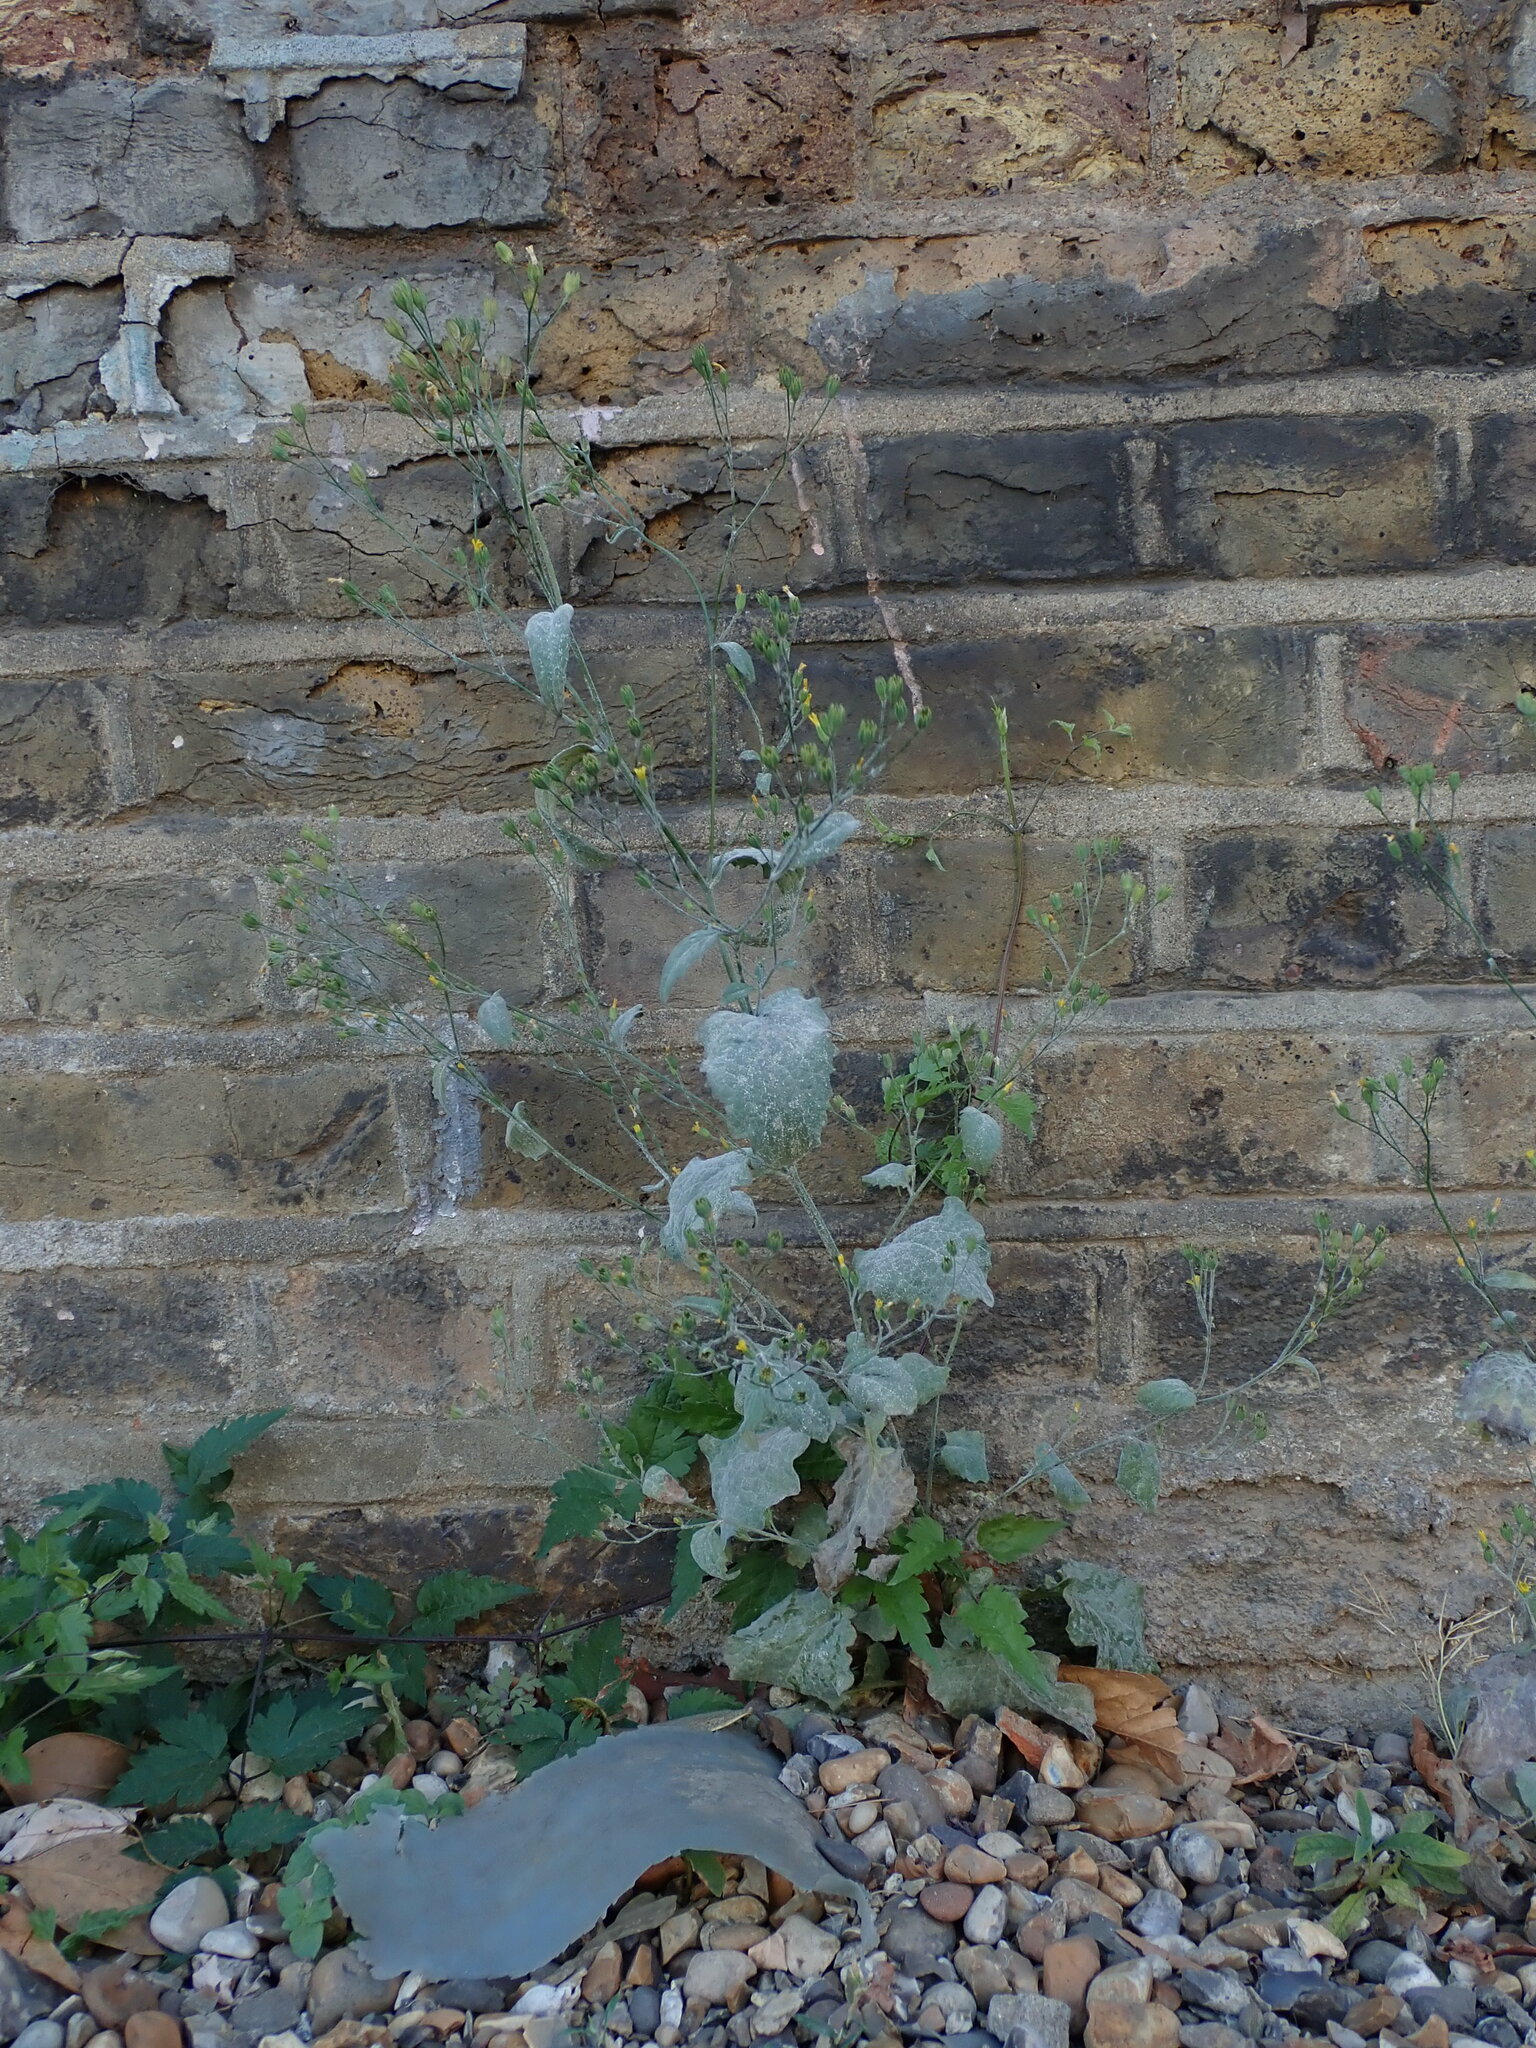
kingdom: Plantae
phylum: Tracheophyta
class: Magnoliopsida
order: Asterales
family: Asteraceae
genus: Lapsana
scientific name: Lapsana communis
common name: Nipplewort
